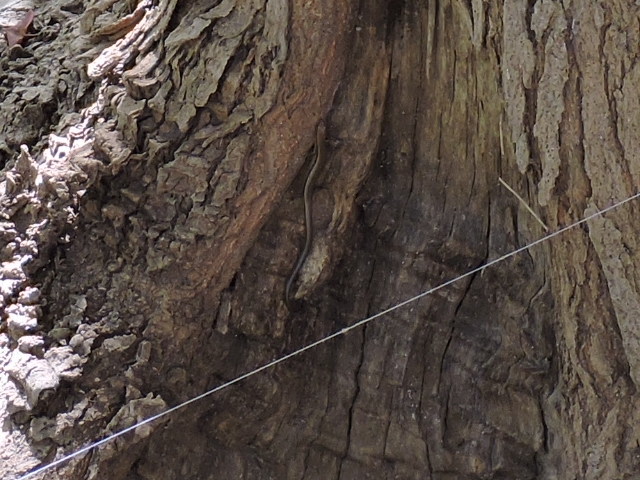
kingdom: Animalia
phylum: Chordata
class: Squamata
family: Scincidae
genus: Scincella
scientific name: Scincella lateralis
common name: Ground skink
